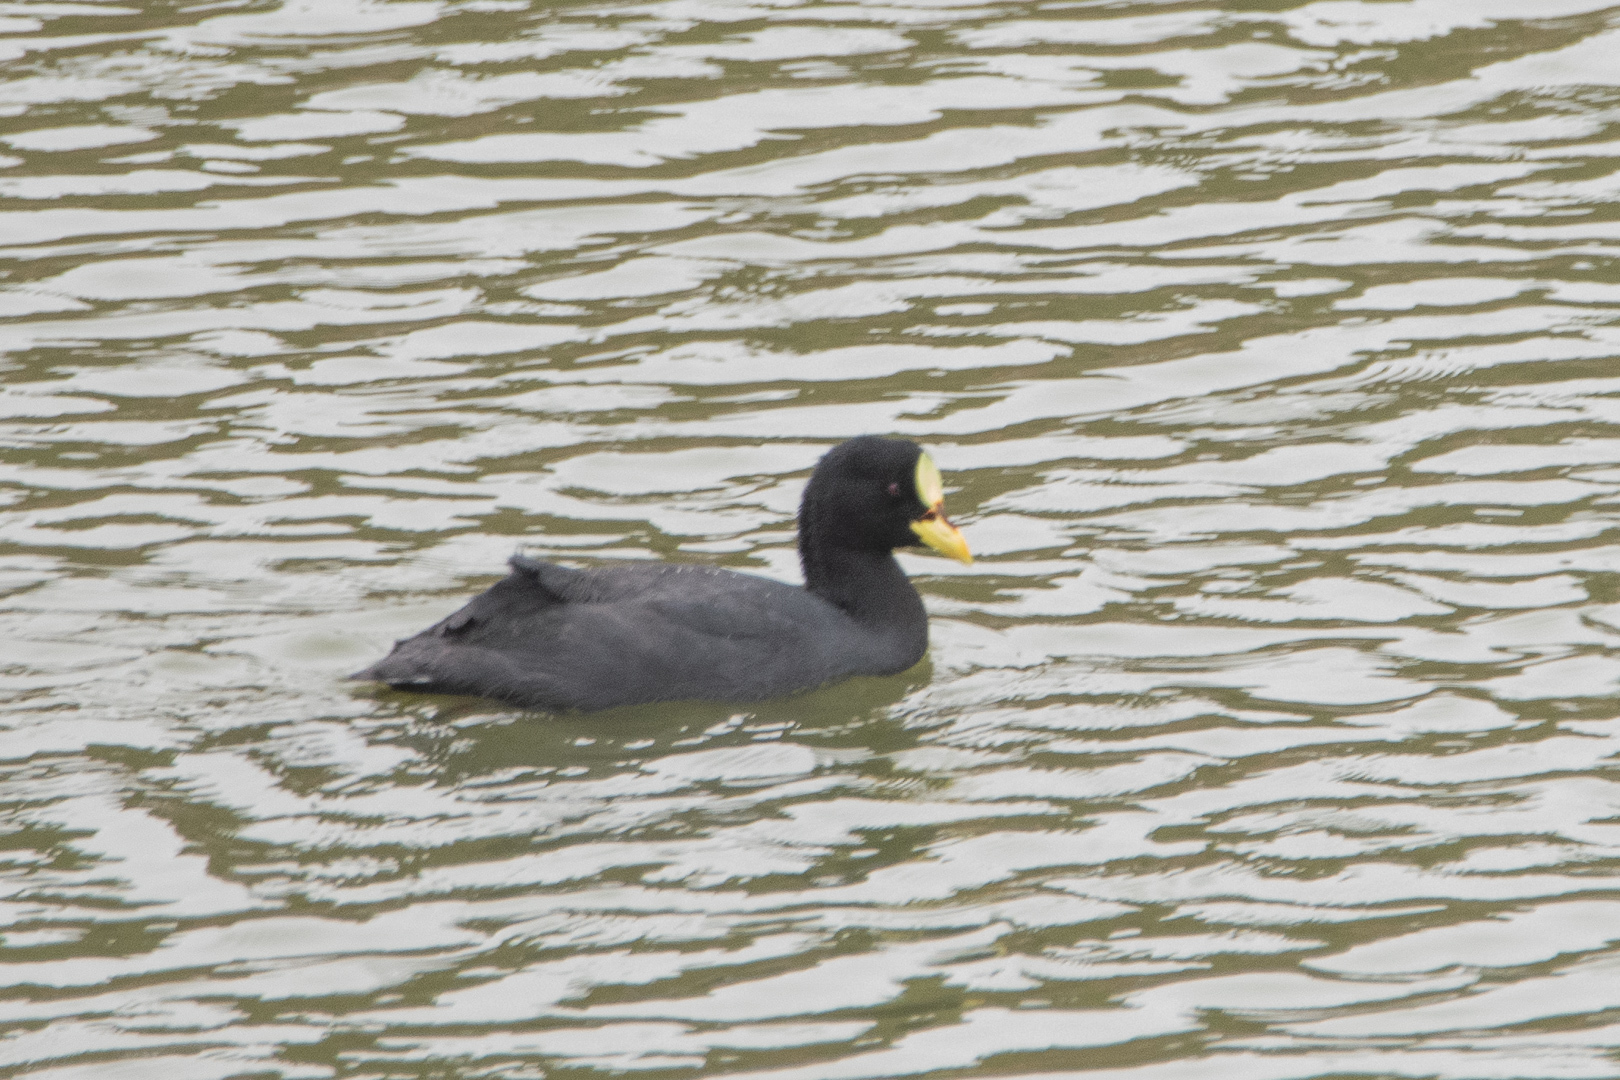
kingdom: Animalia
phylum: Chordata
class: Aves
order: Gruiformes
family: Rallidae
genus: Fulica
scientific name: Fulica armillata
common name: Red-gartered coot
